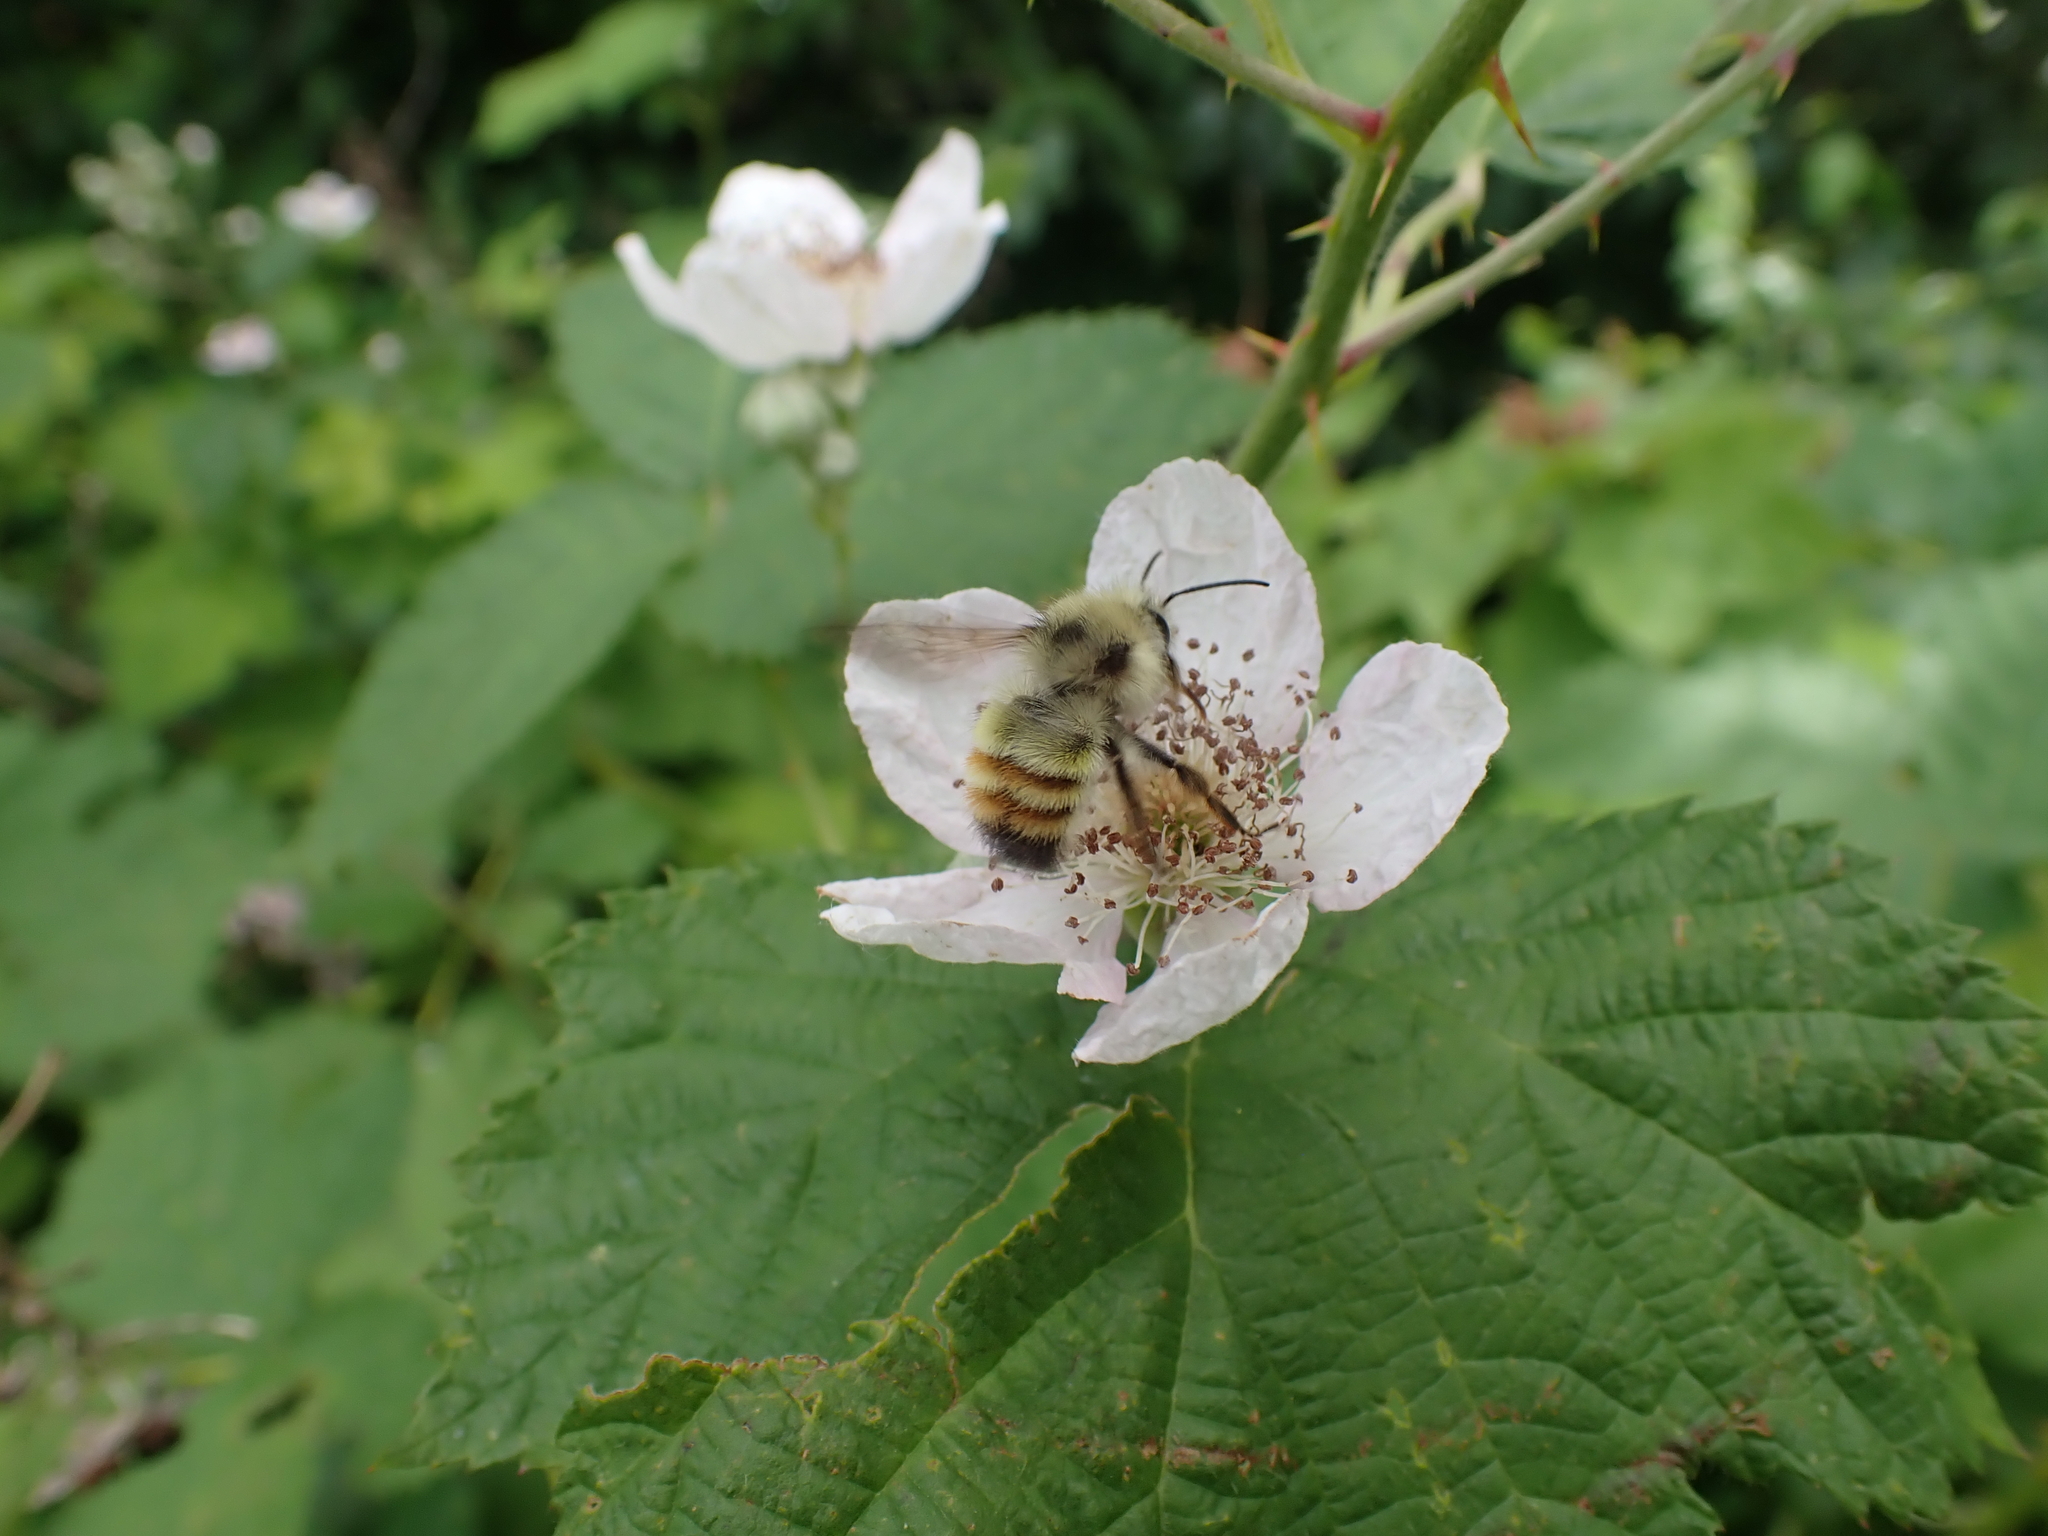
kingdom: Animalia
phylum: Arthropoda
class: Insecta
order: Hymenoptera
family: Apidae
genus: Bombus
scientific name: Bombus flavifrons
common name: Yellow head bumble bee
